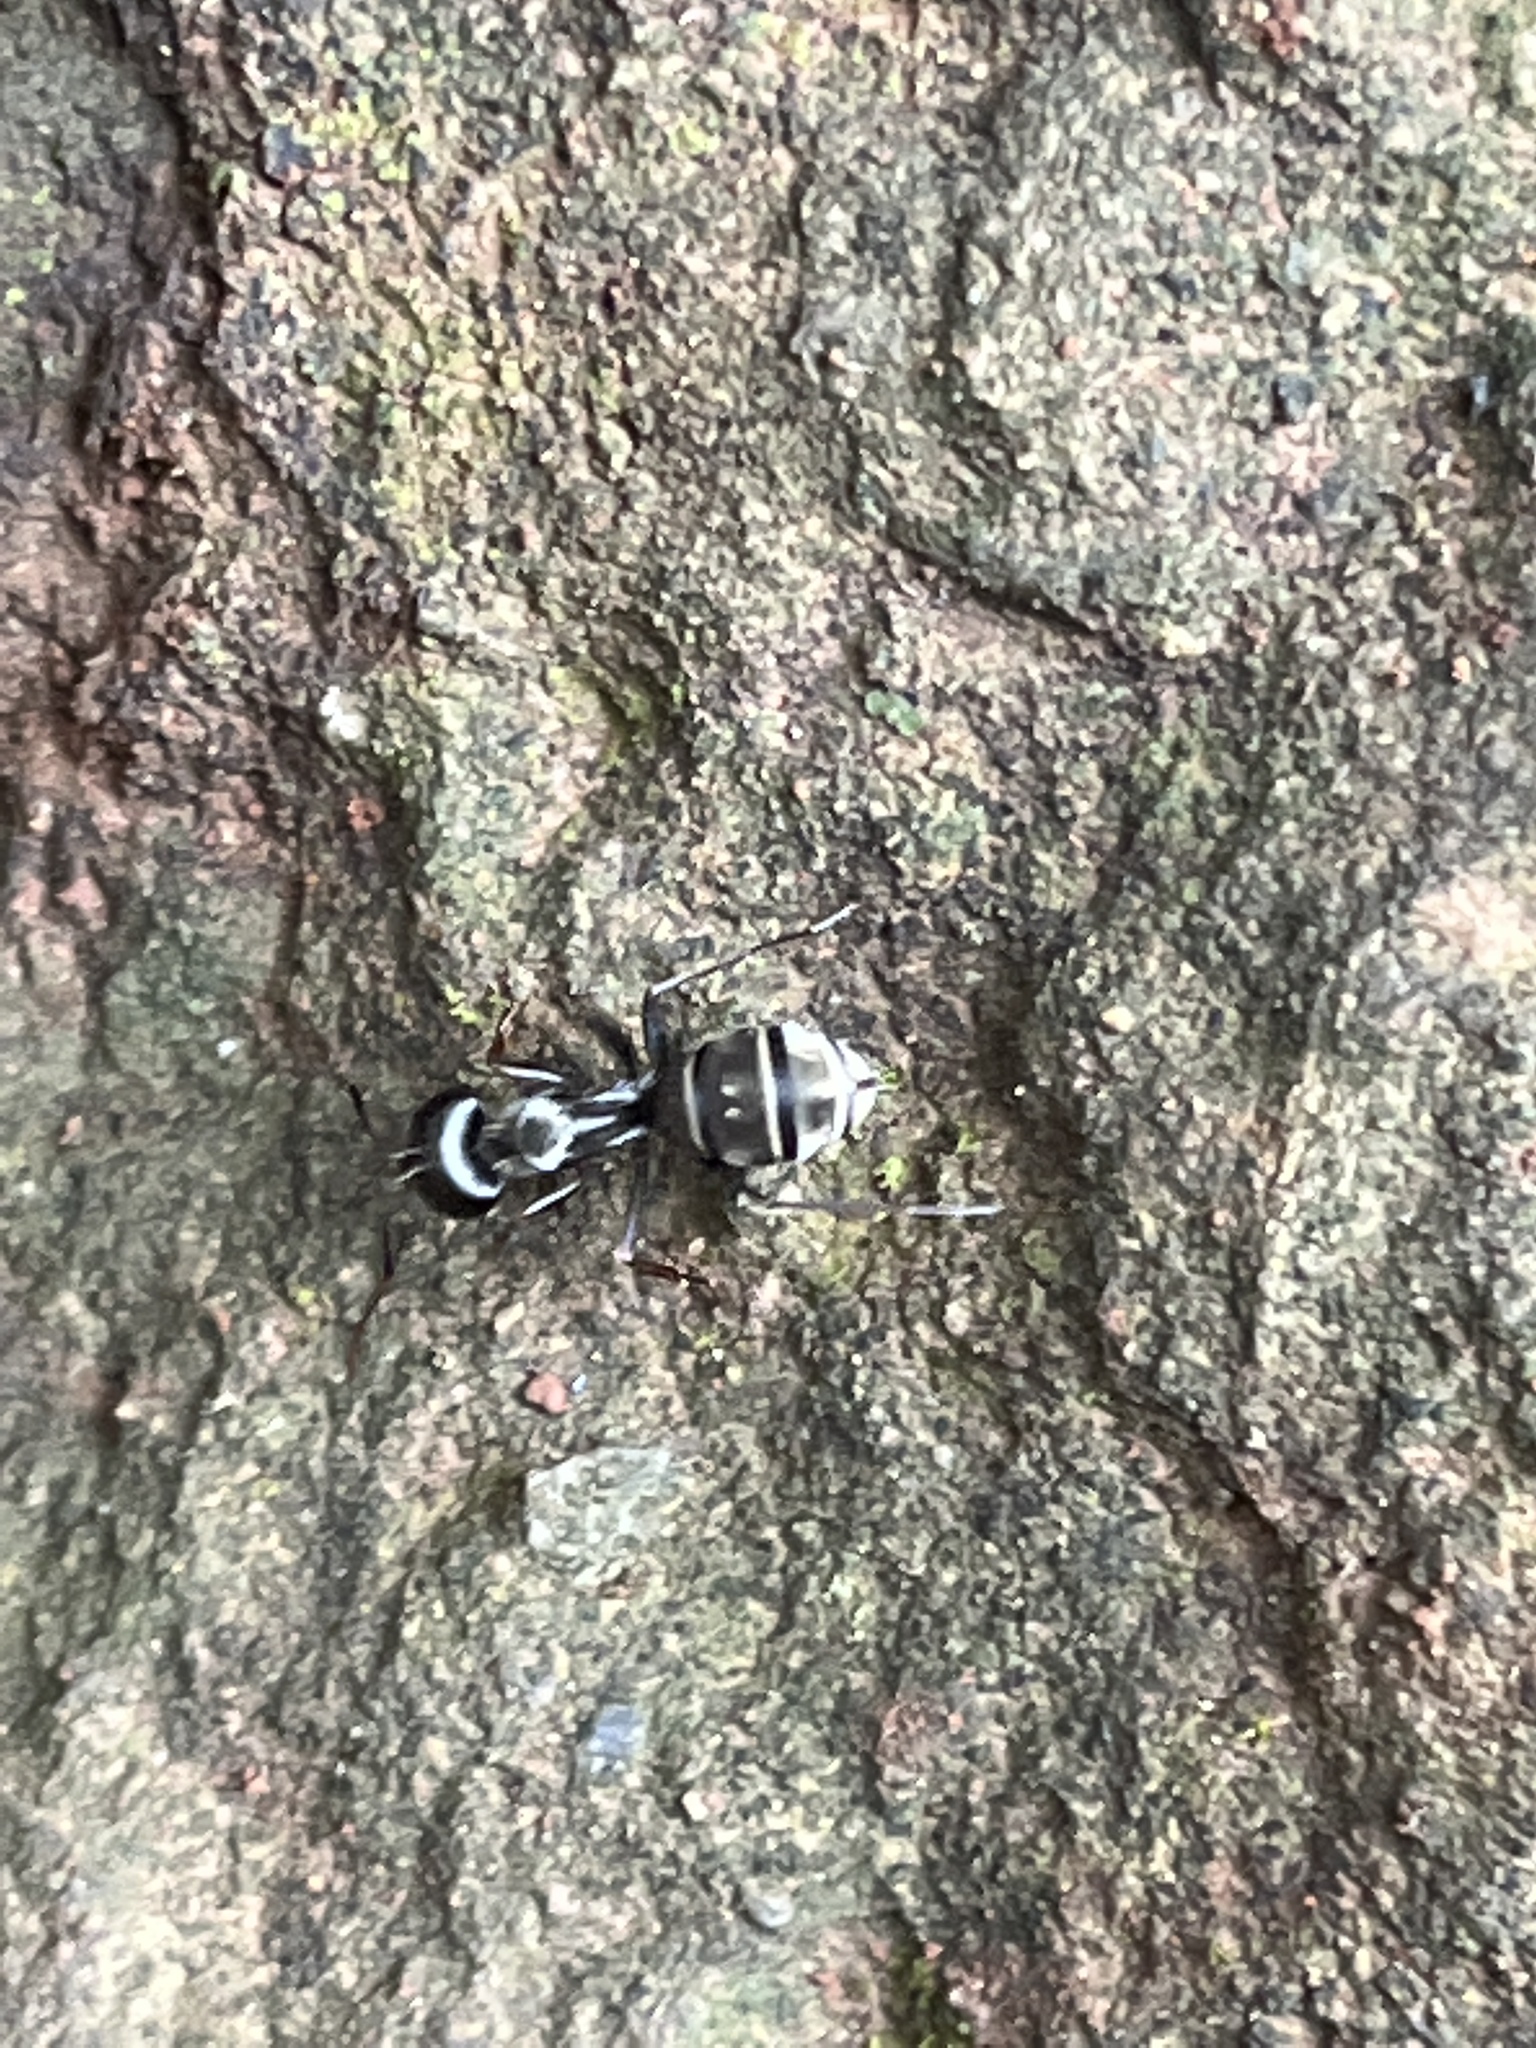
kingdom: Animalia
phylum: Arthropoda
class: Insecta
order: Hymenoptera
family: Formicidae
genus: Camponotus
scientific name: Camponotus flavomarginatus
